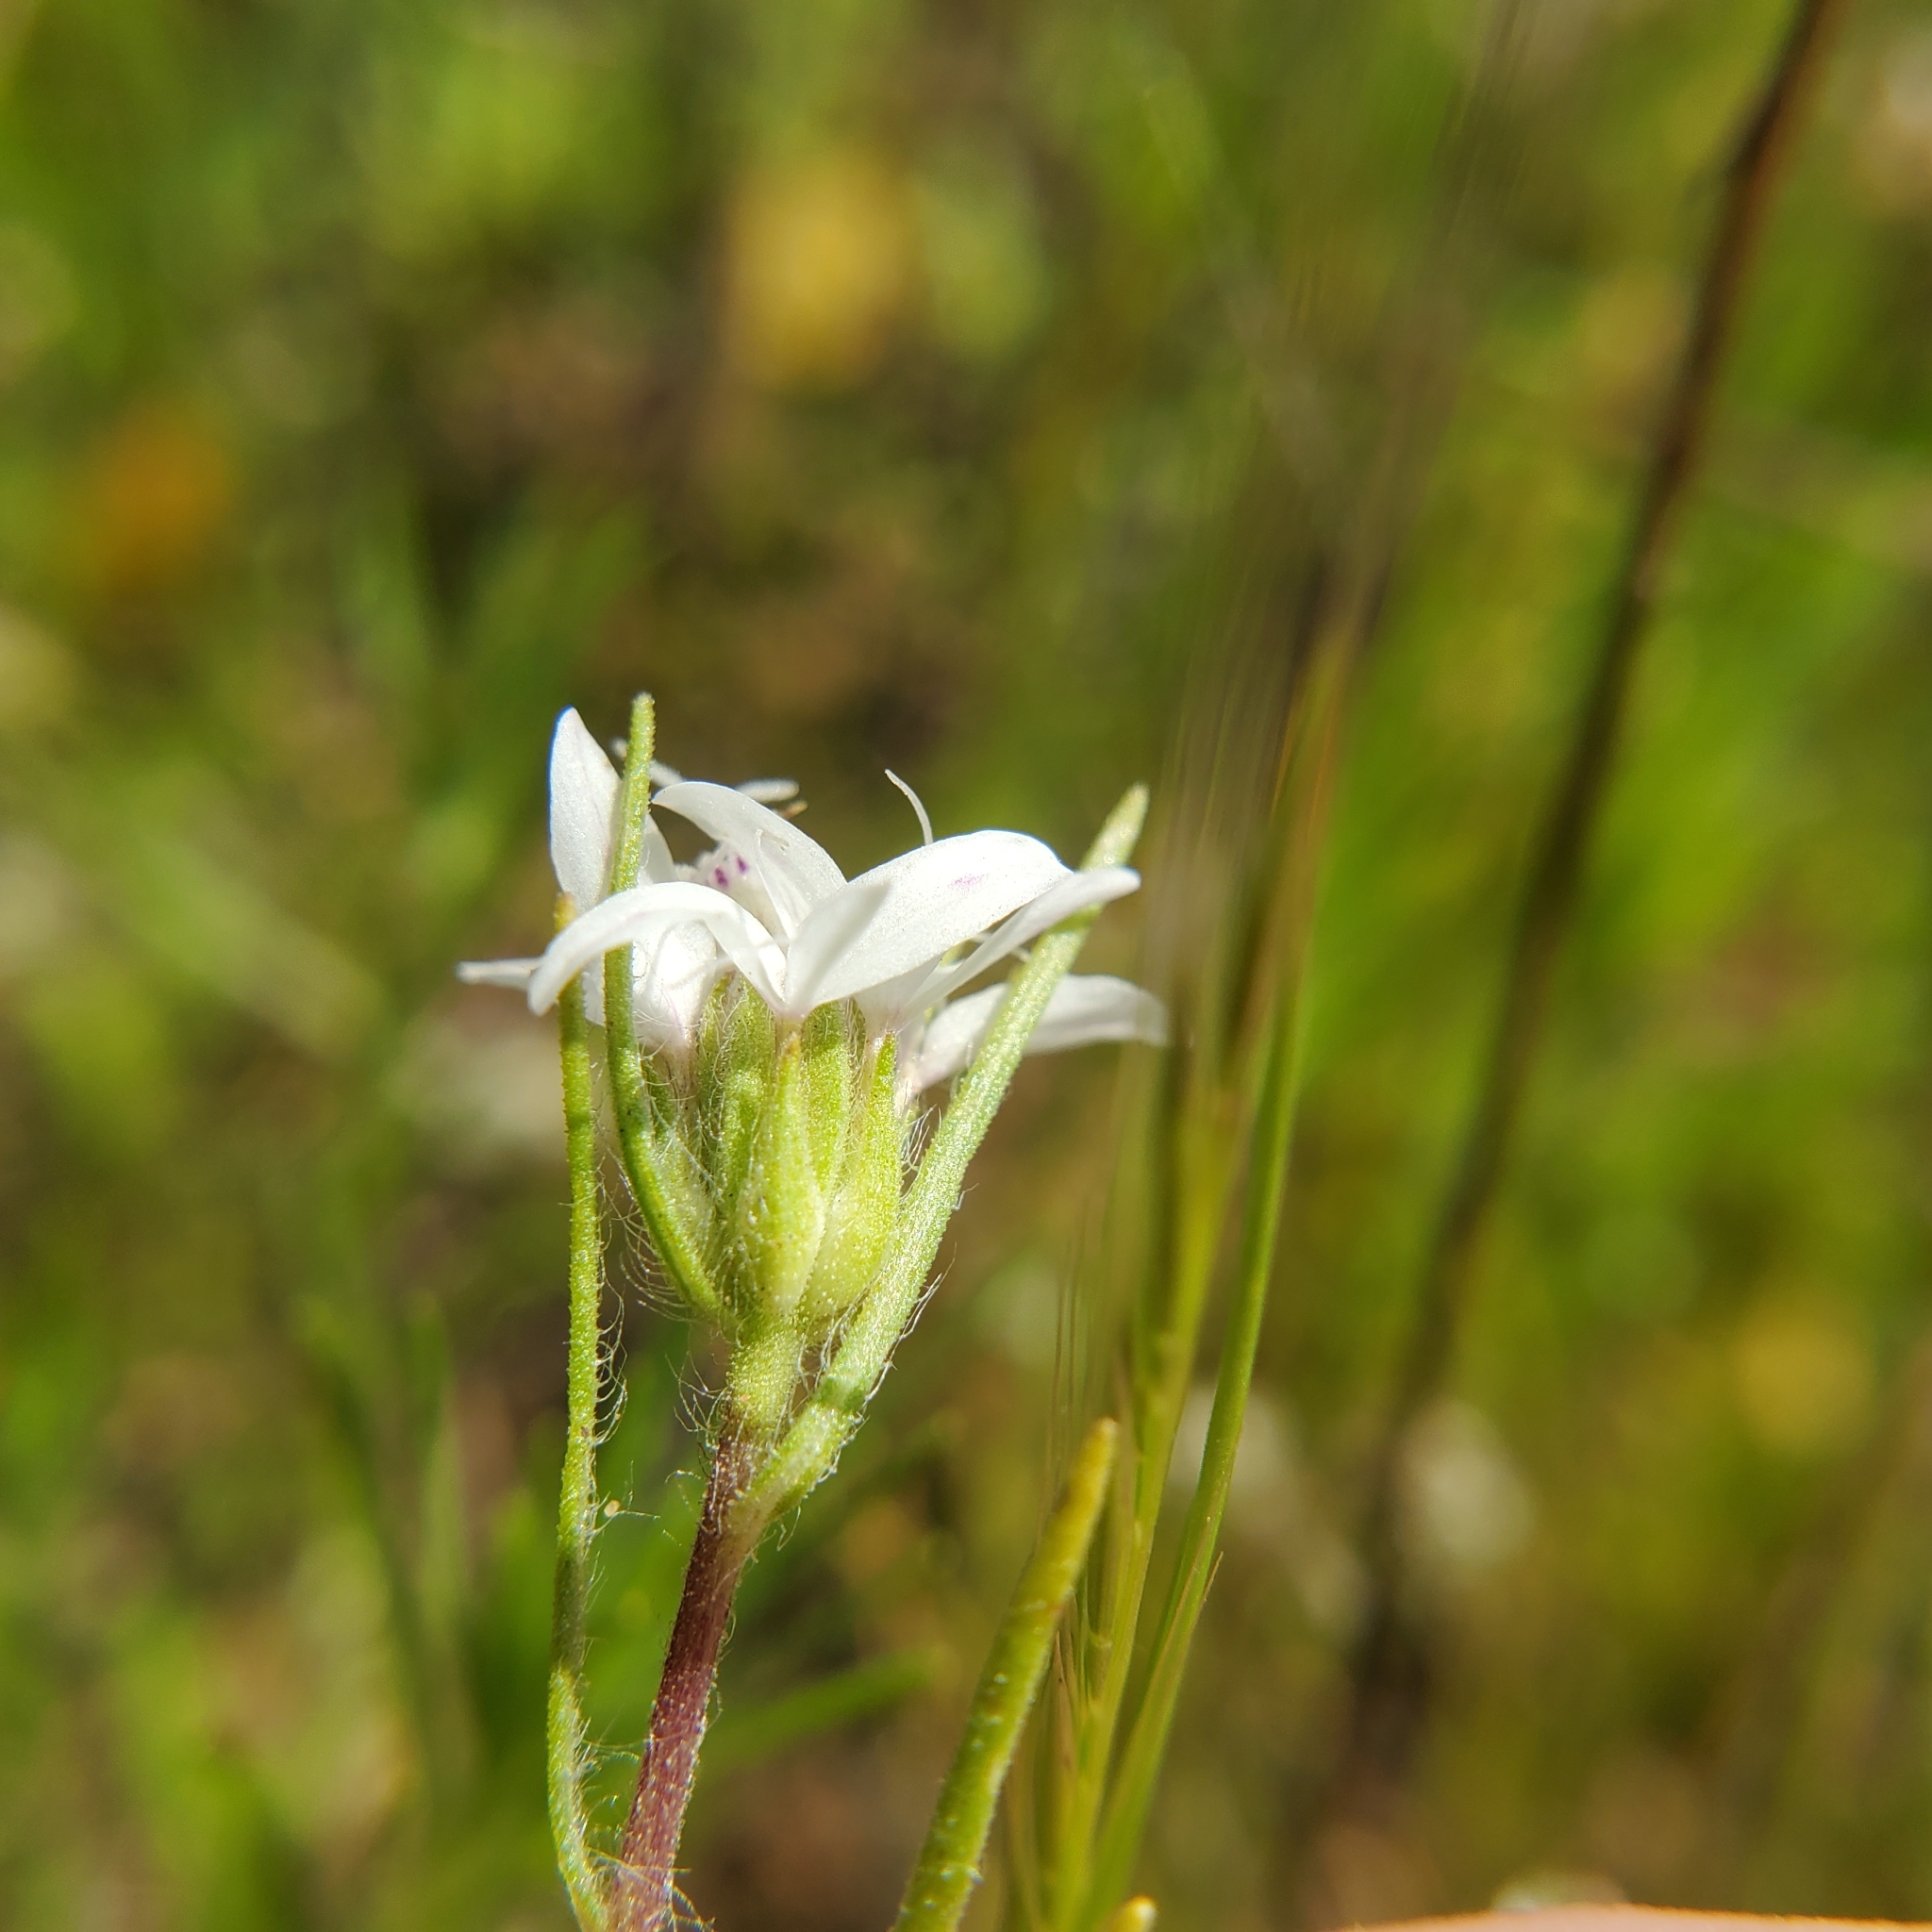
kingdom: Plantae
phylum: Tracheophyta
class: Magnoliopsida
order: Asterales
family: Asteraceae
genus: Osmadenia
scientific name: Osmadenia tenella
